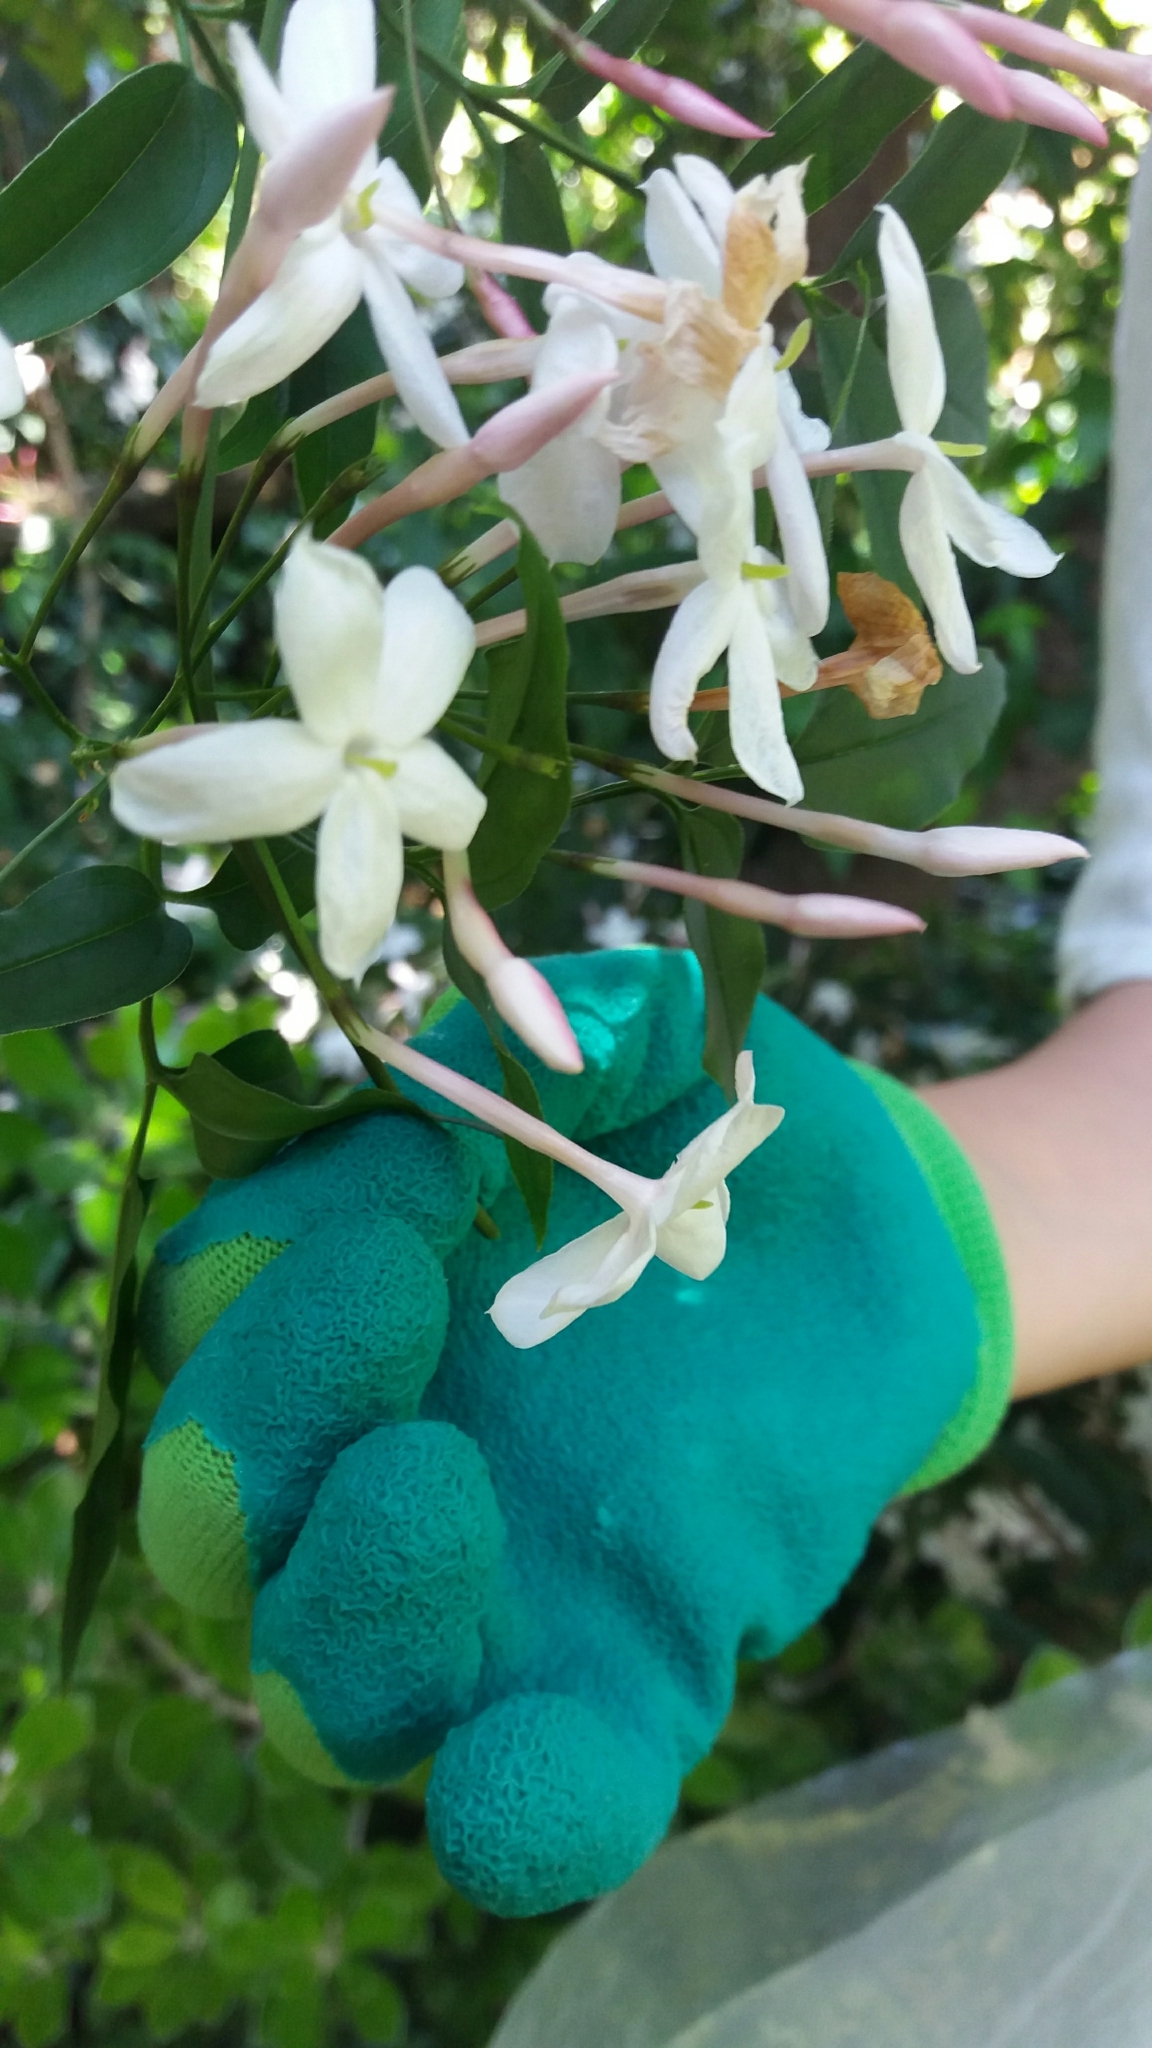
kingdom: Plantae
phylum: Tracheophyta
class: Magnoliopsida
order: Lamiales
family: Oleaceae
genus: Jasminum
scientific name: Jasminum polyanthum
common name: Pink jasmine
